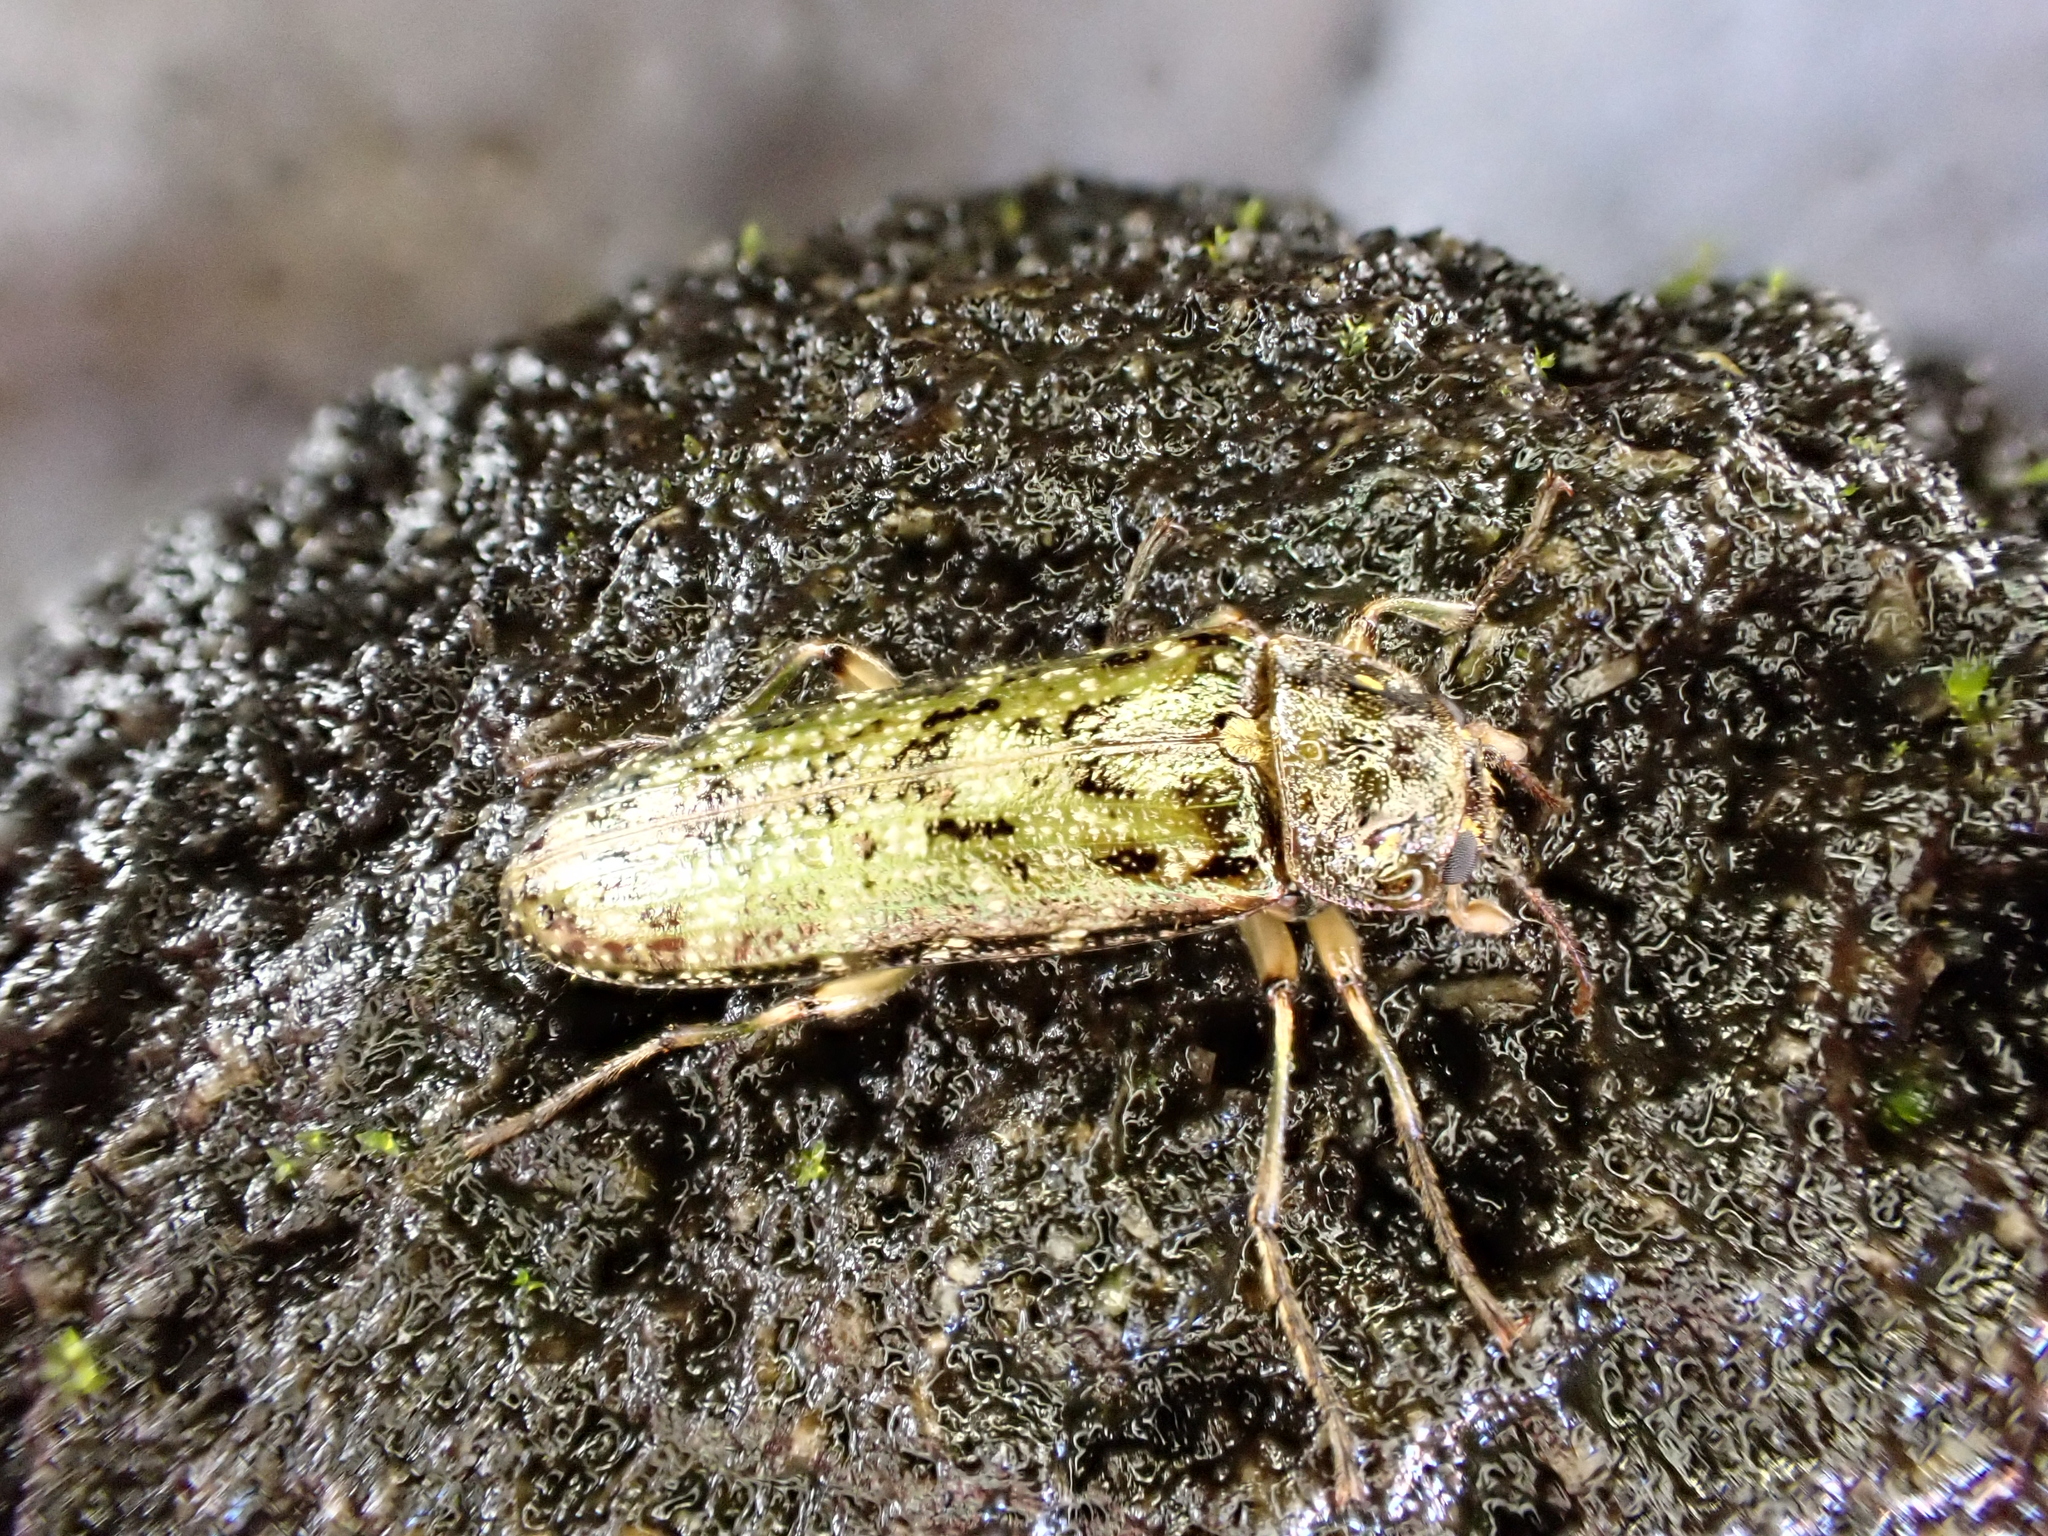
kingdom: Animalia
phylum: Arthropoda
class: Insecta
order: Coleoptera
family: Chalcodryidae
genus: Chalcodrya
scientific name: Chalcodrya
